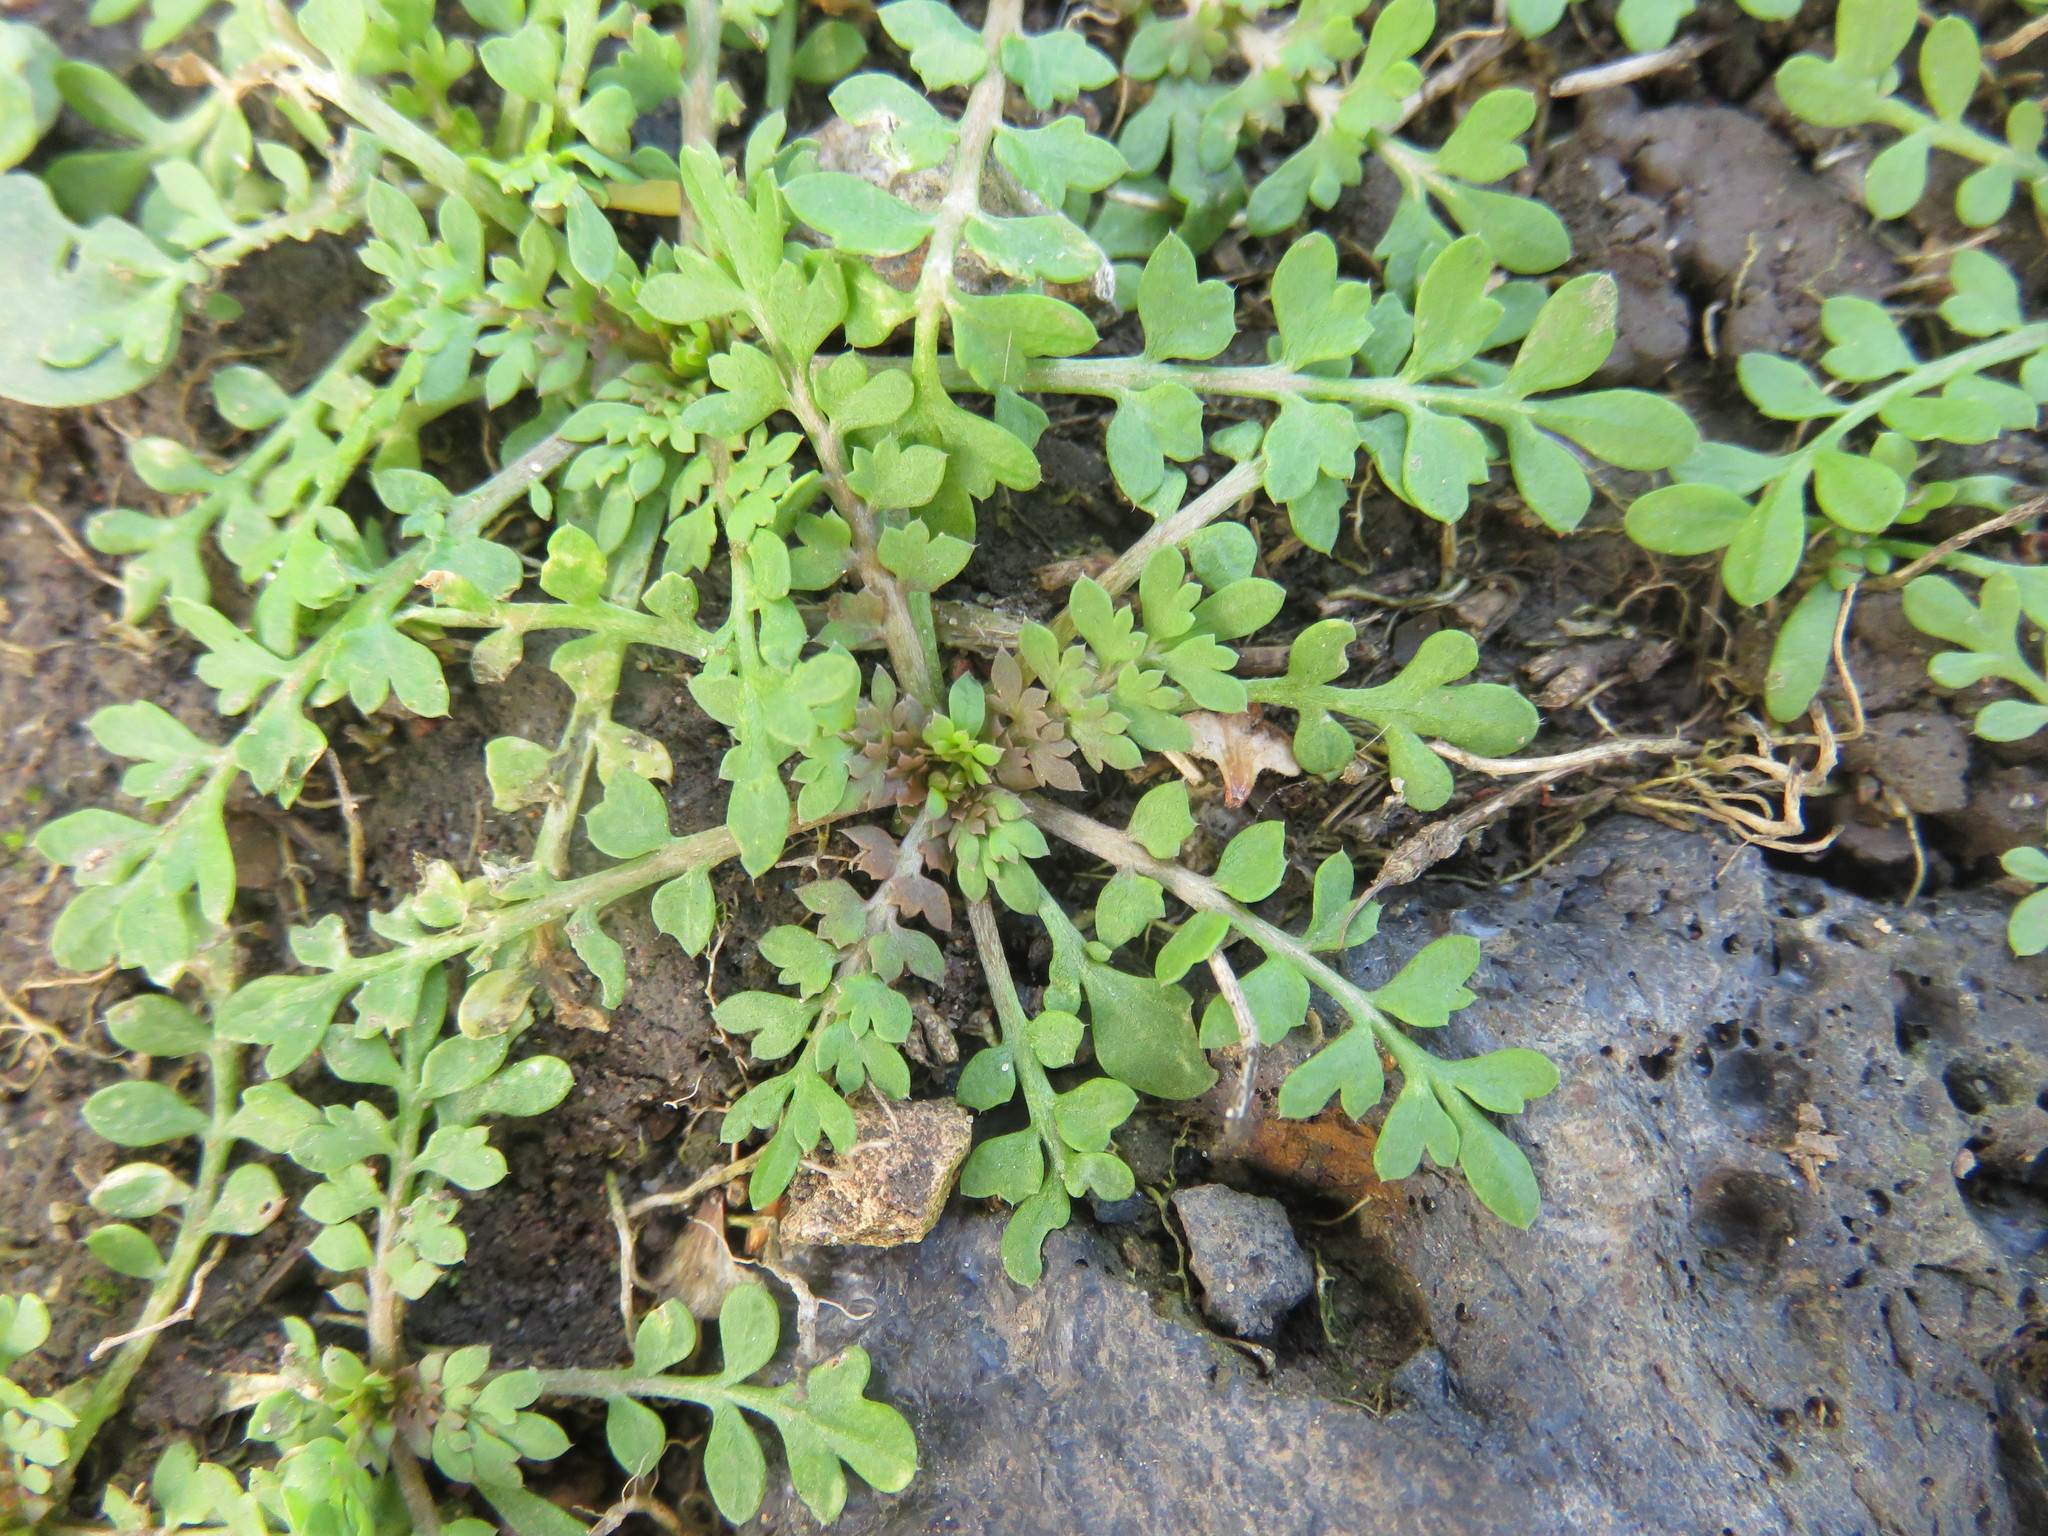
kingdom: Plantae
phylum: Tracheophyta
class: Magnoliopsida
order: Brassicales
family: Brassicaceae
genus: Lepidium
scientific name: Lepidium didymum
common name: Lesser swinecress
